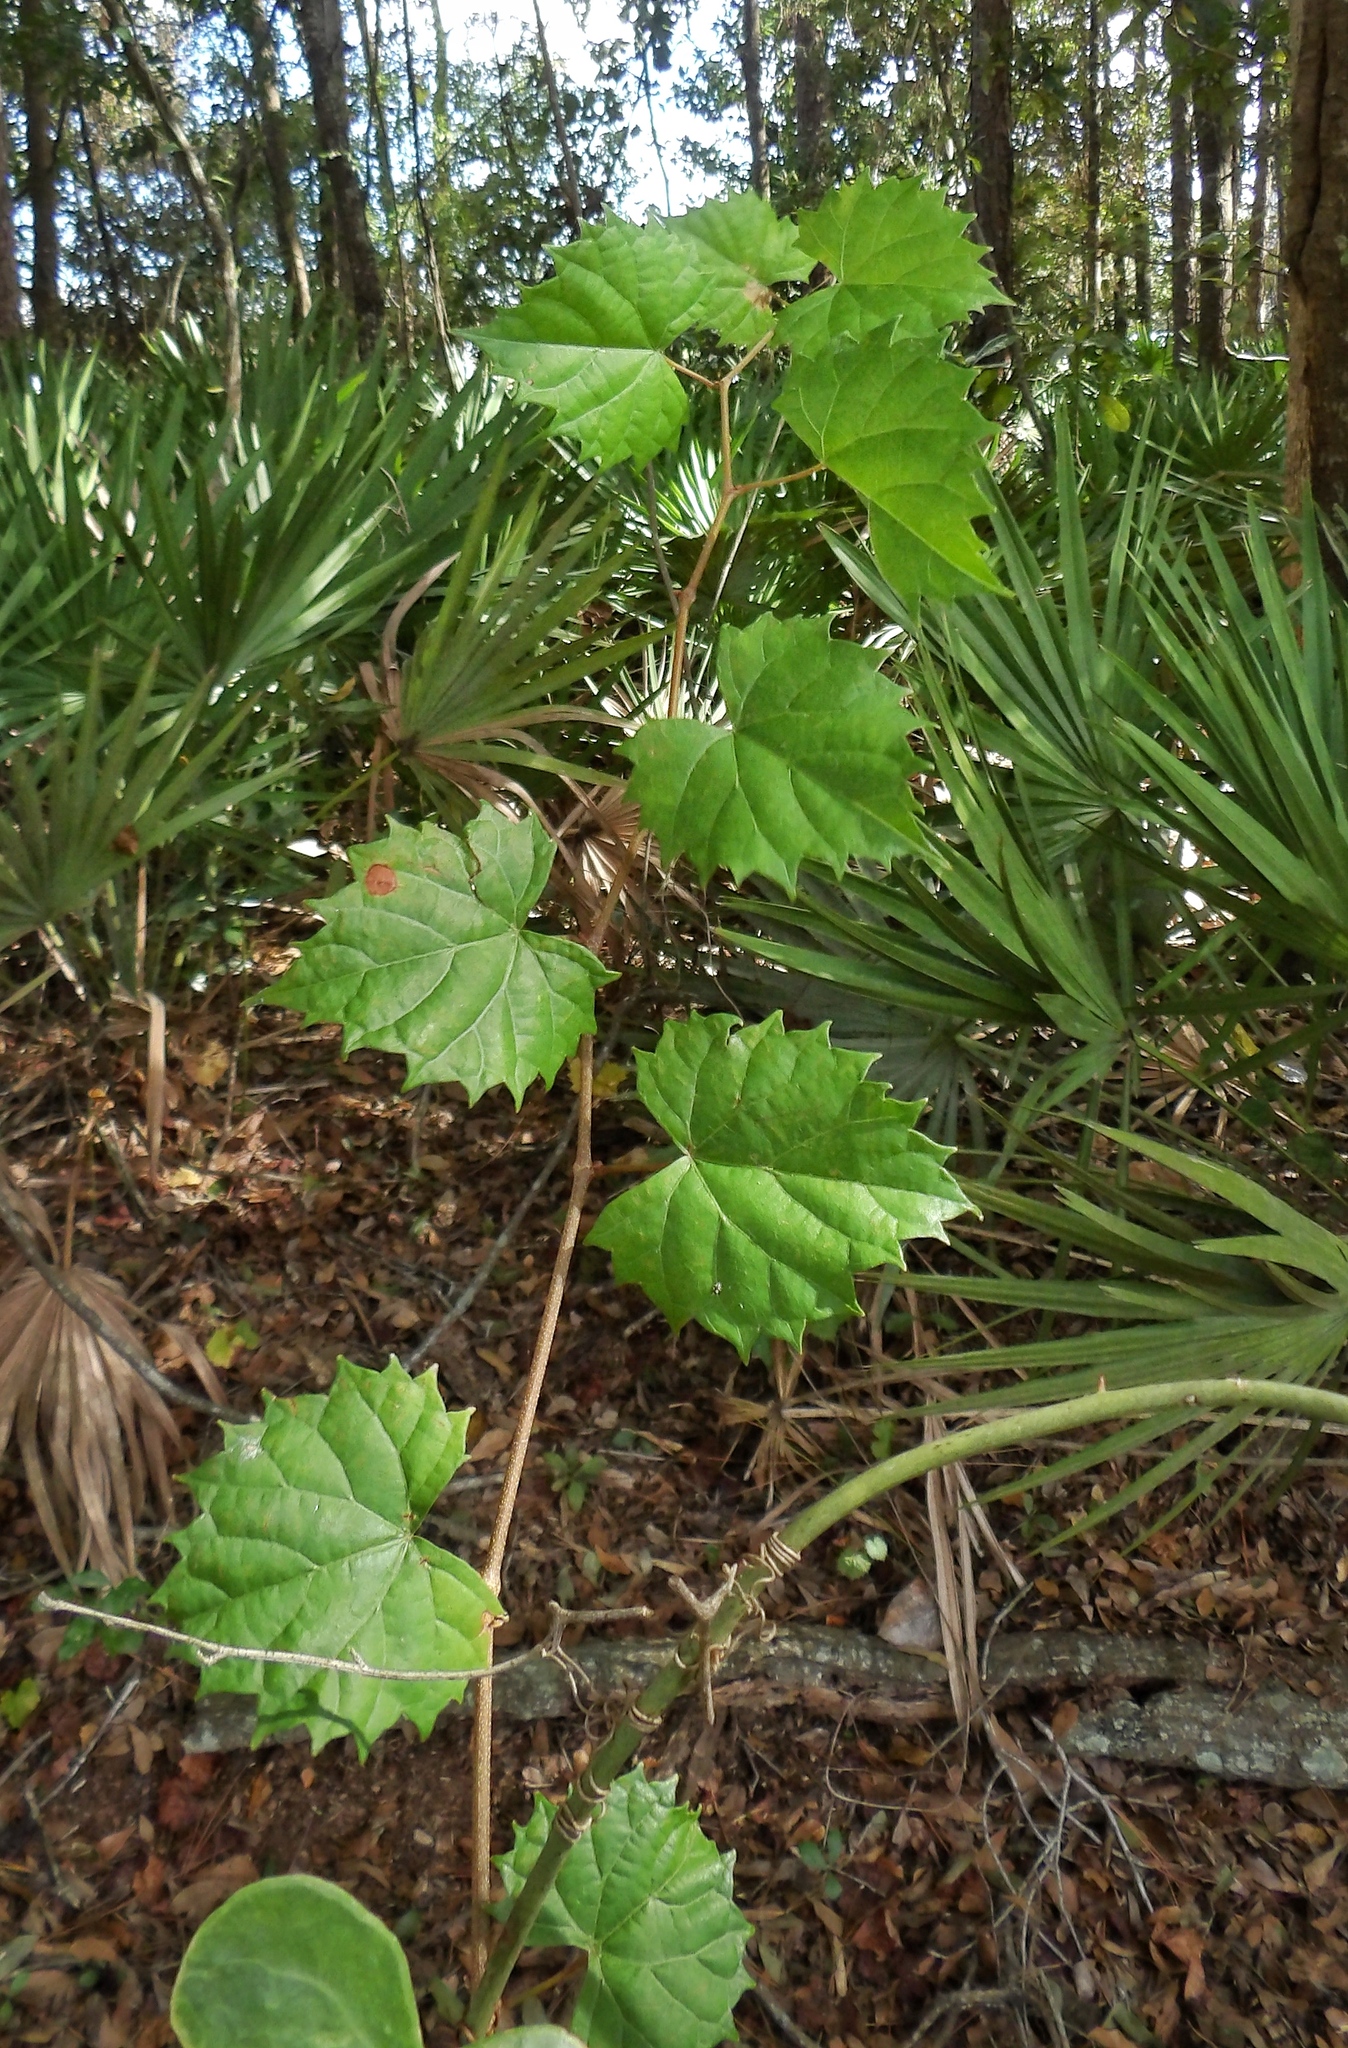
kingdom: Plantae
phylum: Tracheophyta
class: Magnoliopsida
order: Vitales
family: Vitaceae
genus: Vitis
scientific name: Vitis rotundifolia
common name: Muscadine grape
